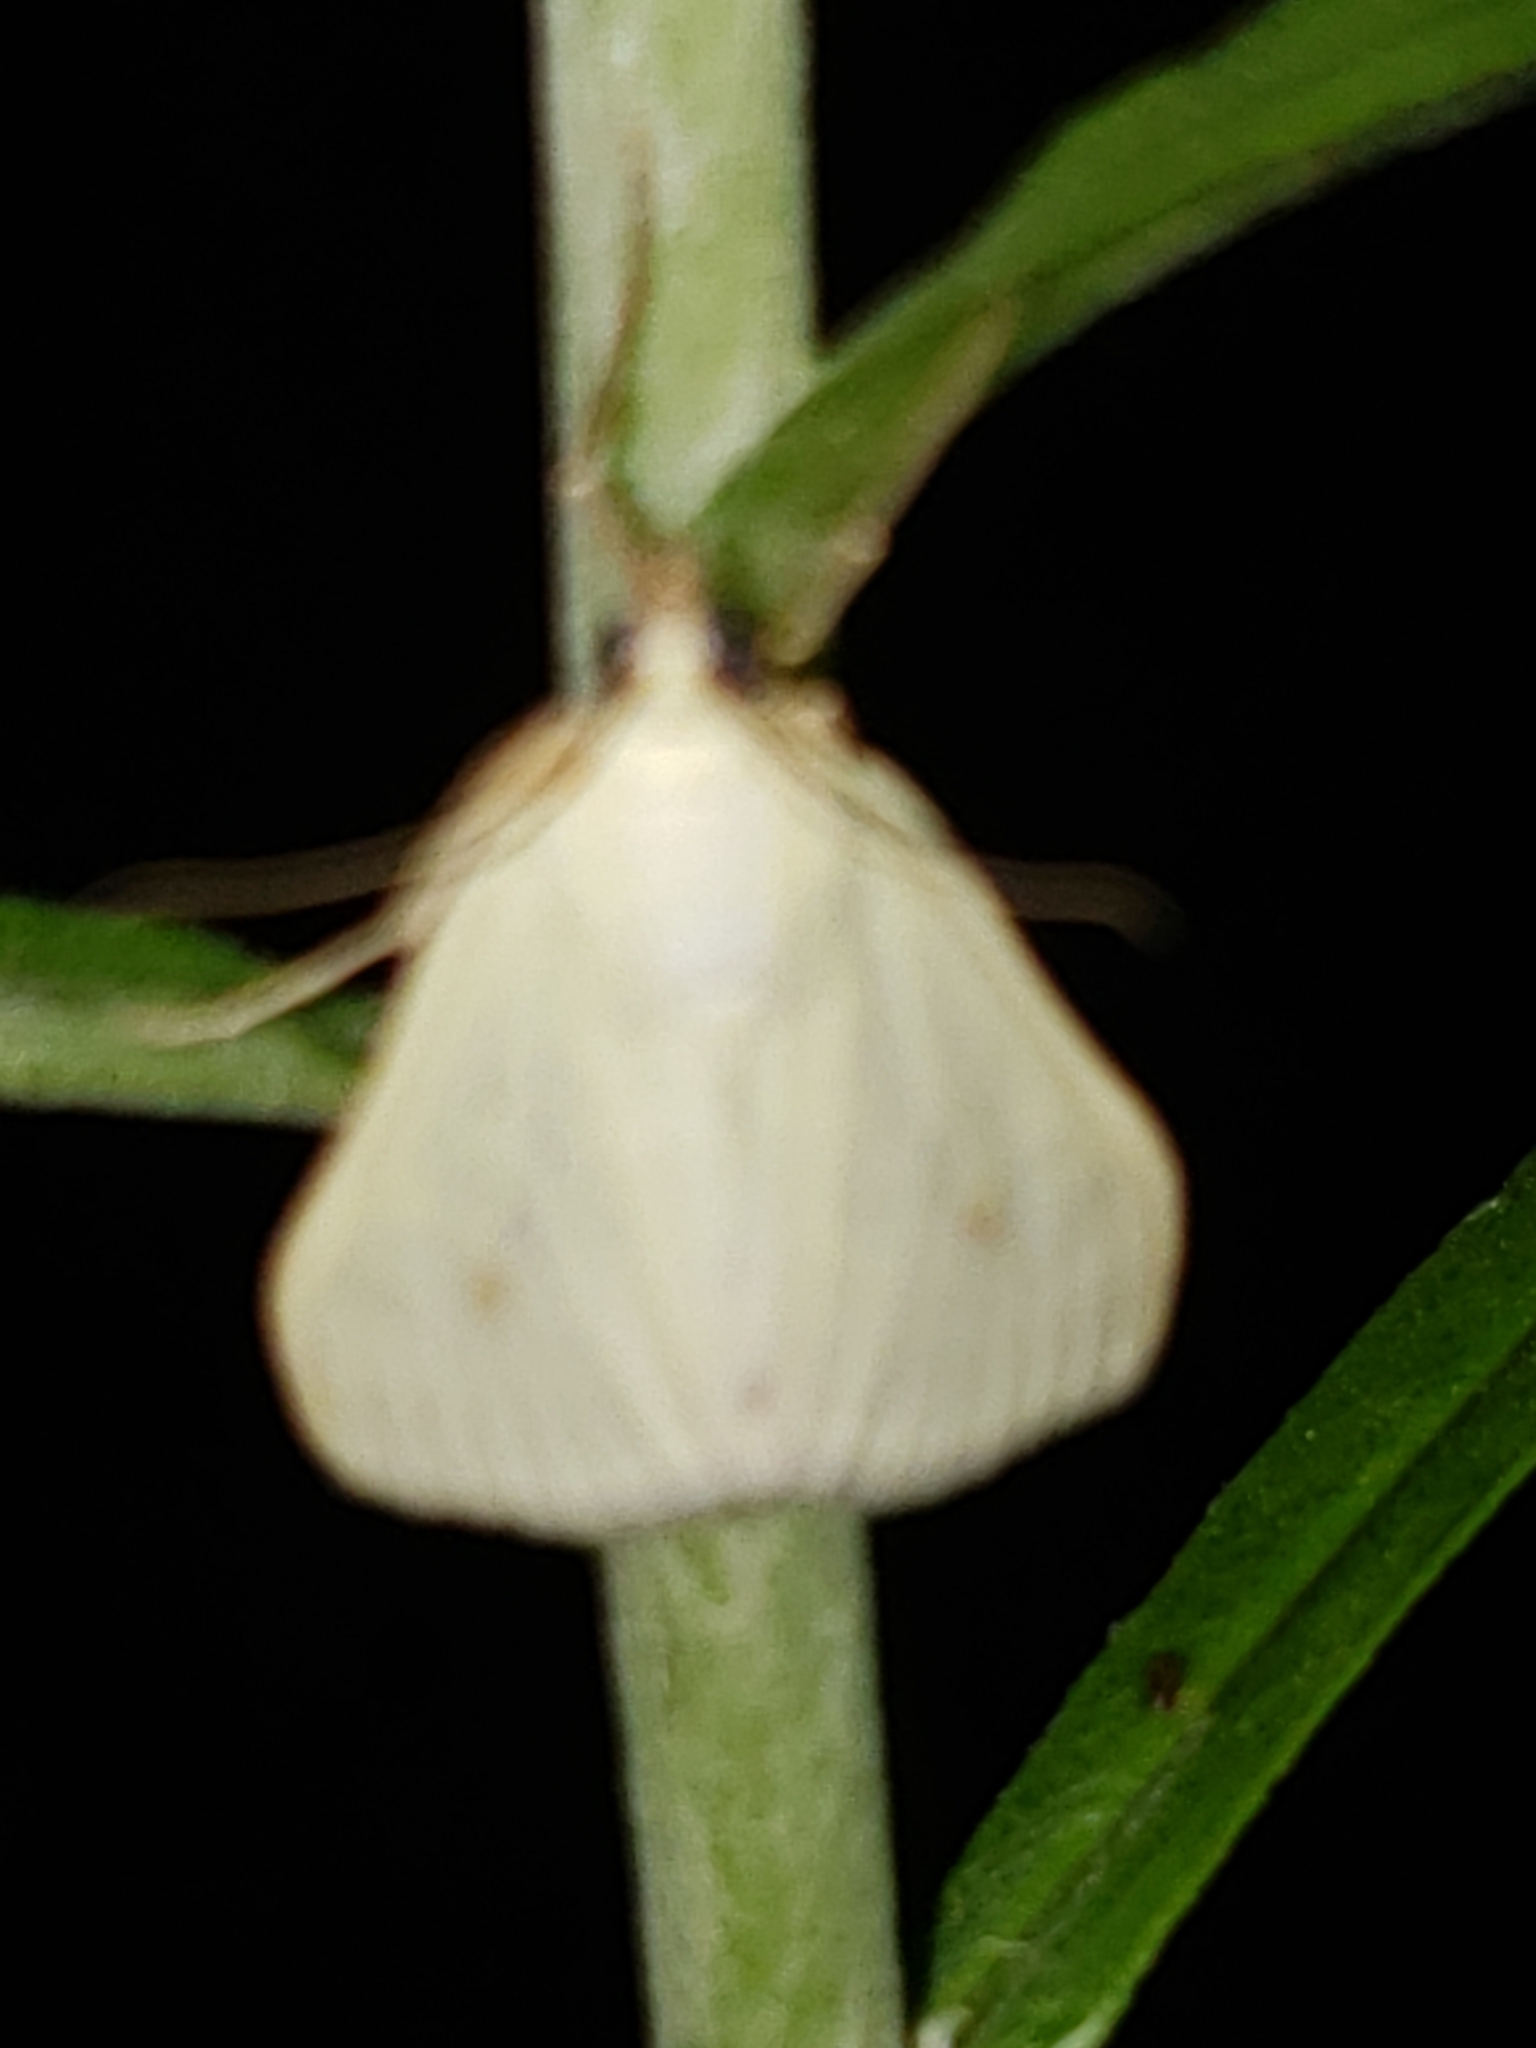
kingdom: Animalia
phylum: Arthropoda
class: Insecta
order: Lepidoptera
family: Crambidae
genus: Sitochroa
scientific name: Sitochroa palealis
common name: Greenish-yellow sitochroa moth
